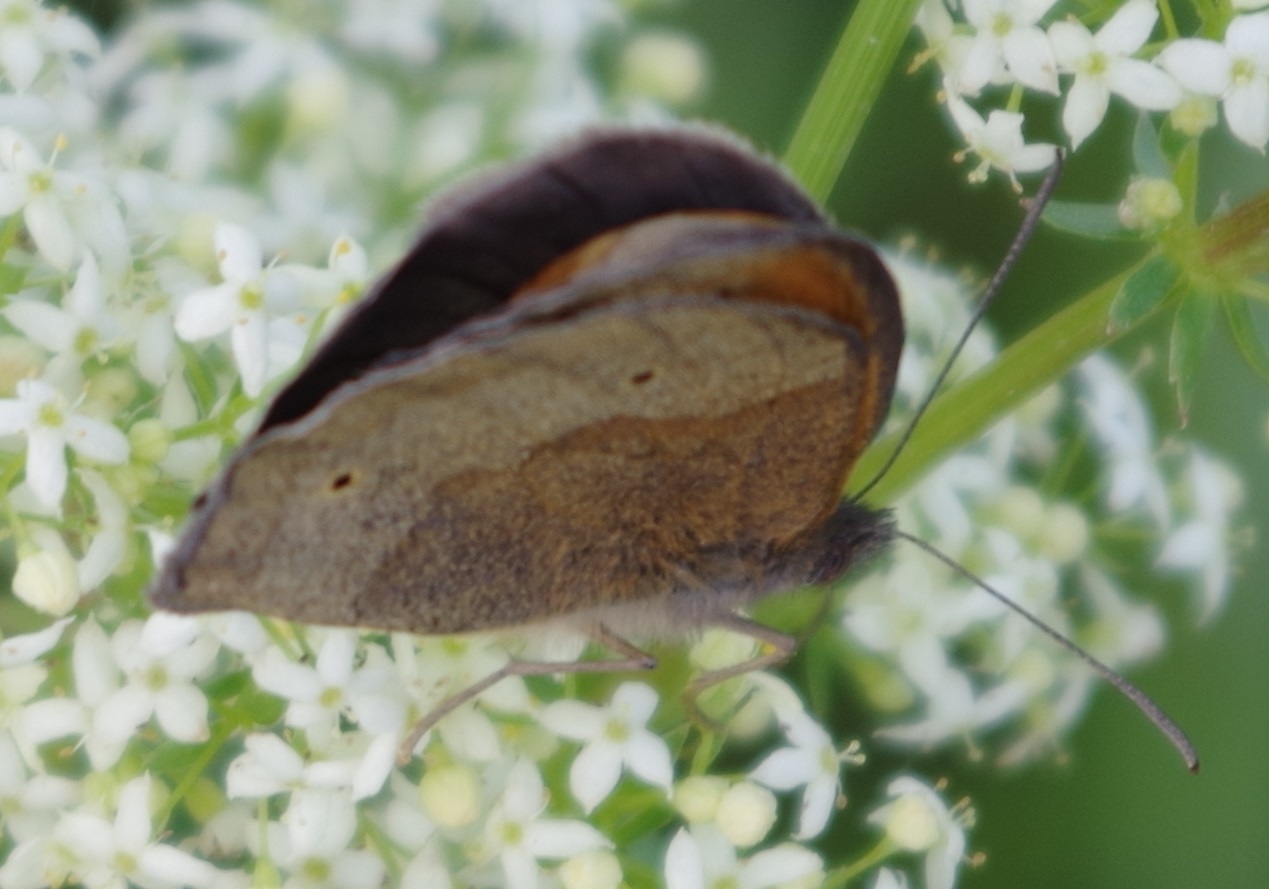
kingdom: Animalia
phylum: Arthropoda
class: Insecta
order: Lepidoptera
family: Nymphalidae
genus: Maniola
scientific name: Maniola jurtina
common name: Meadow brown
